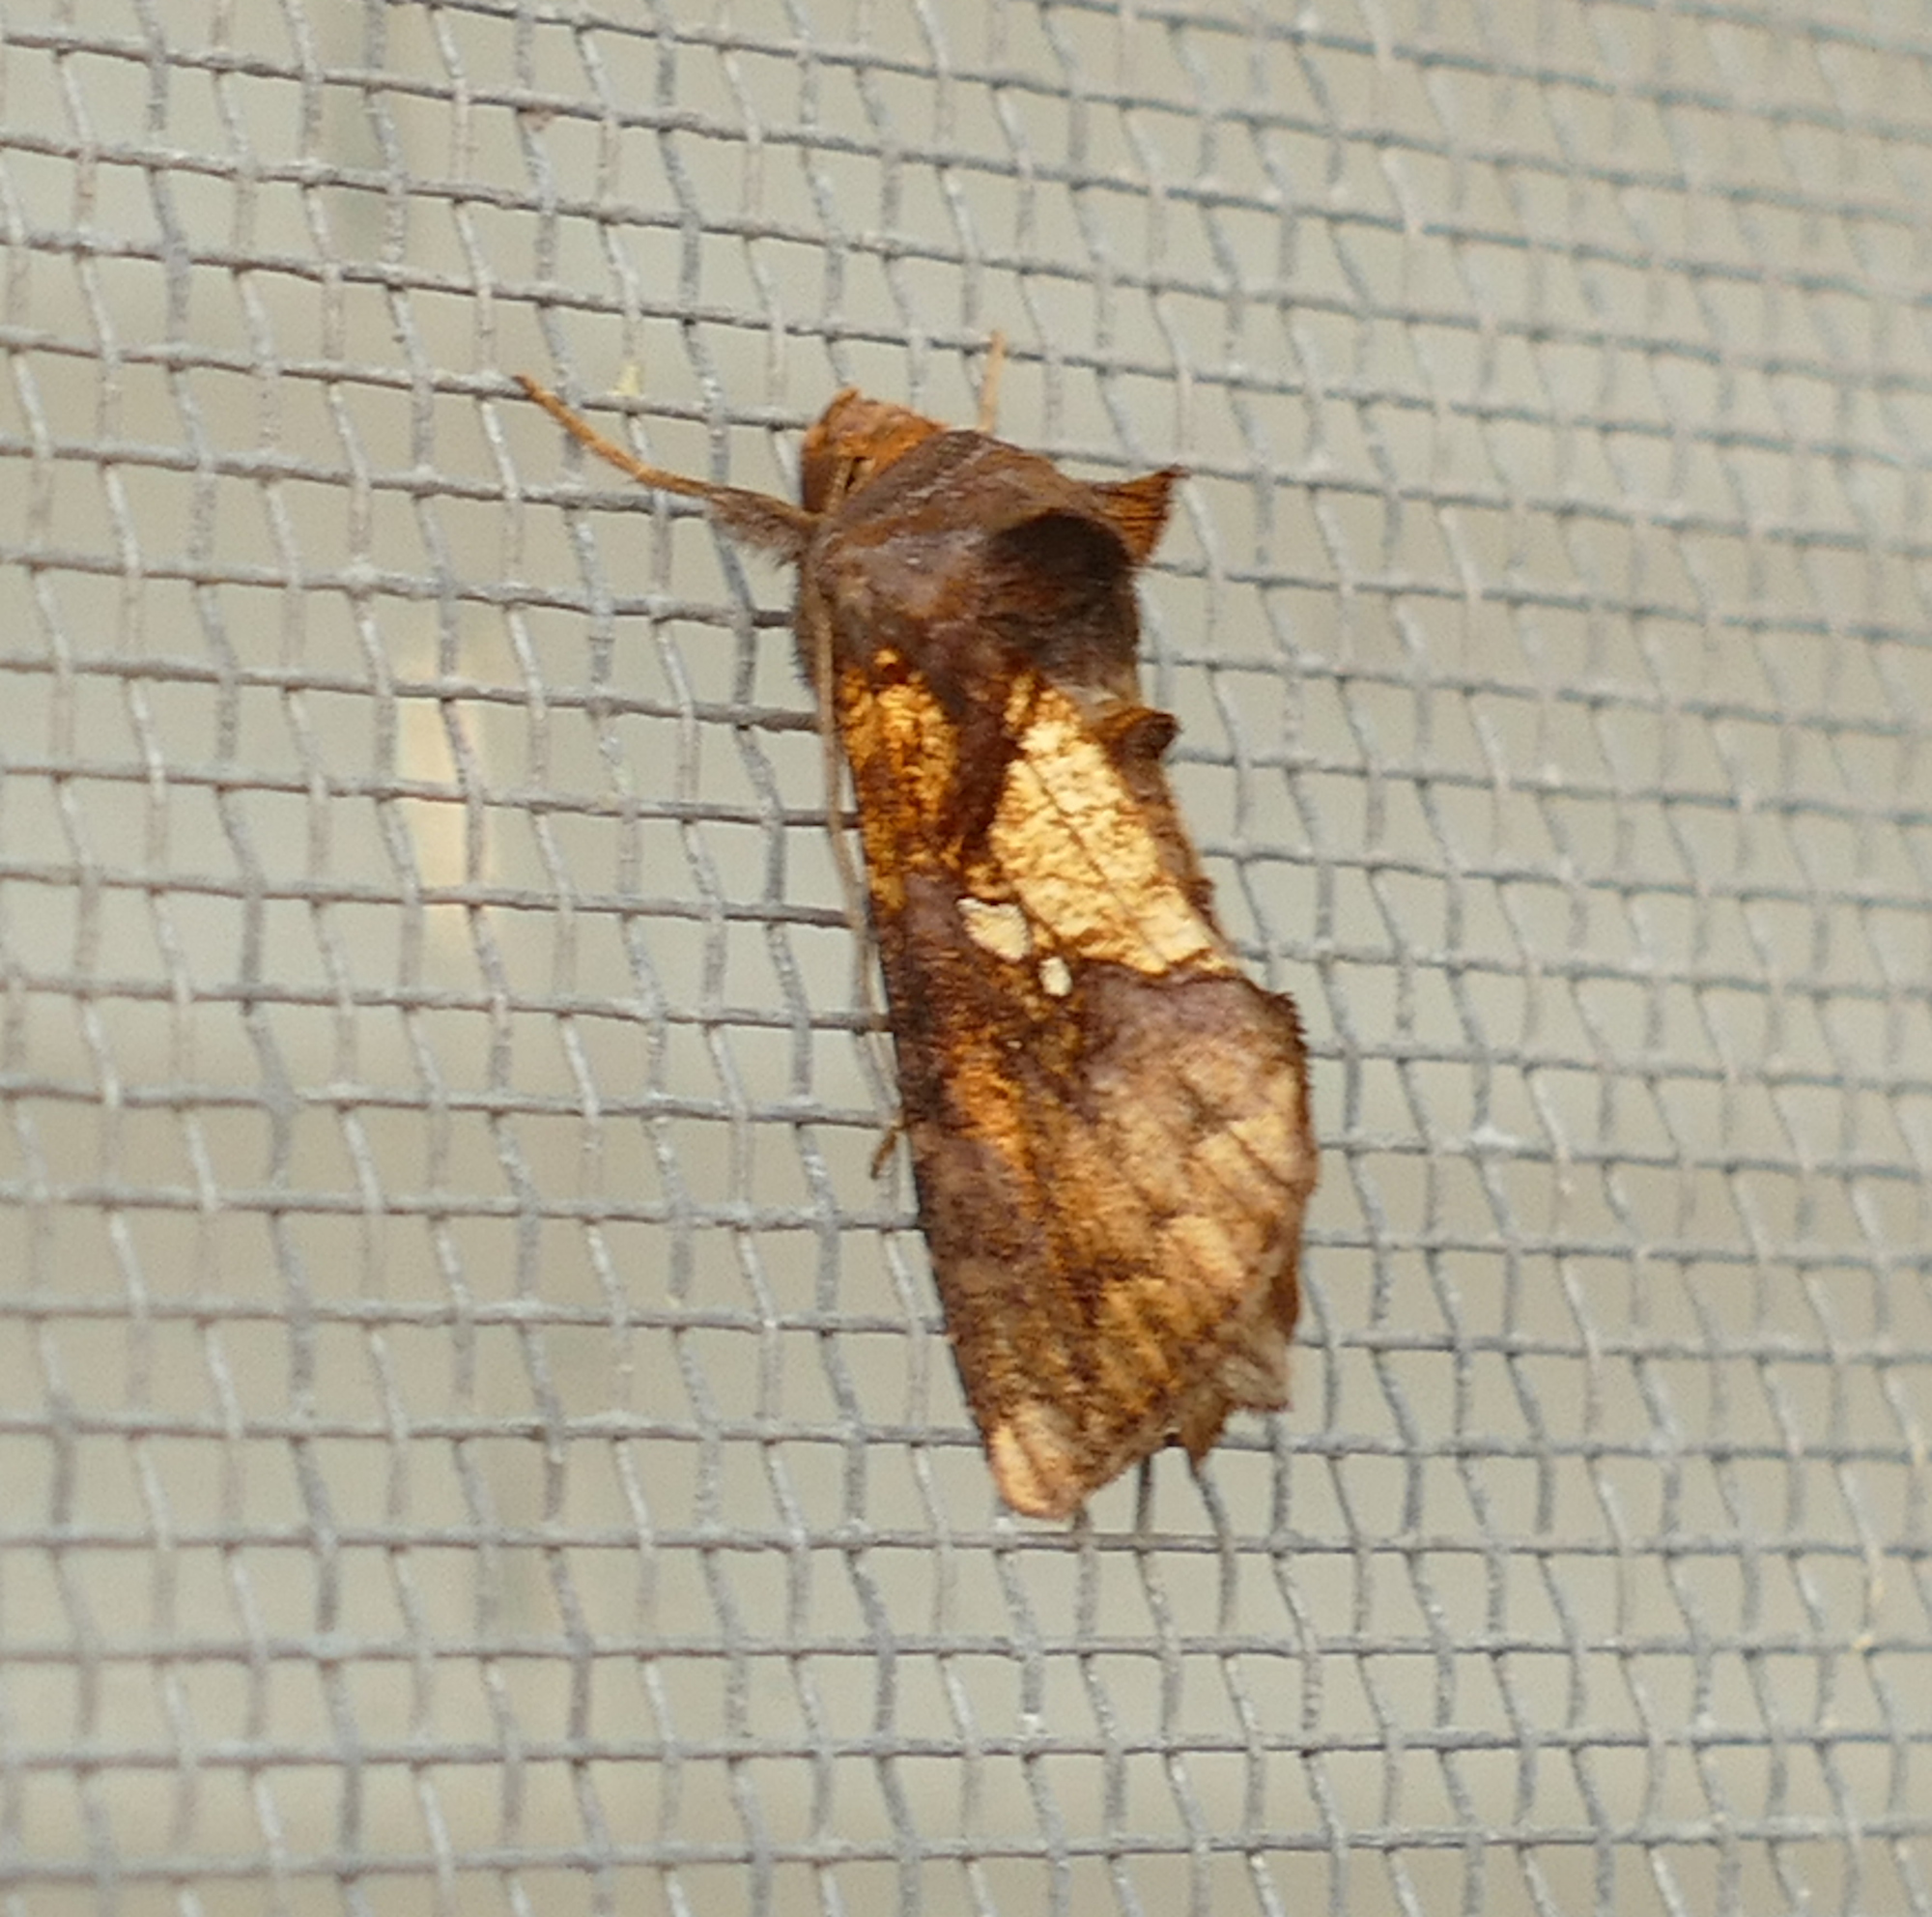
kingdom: Animalia
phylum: Arthropoda
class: Insecta
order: Lepidoptera
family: Noctuidae
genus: Argyrogramma
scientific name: Argyrogramma verruca
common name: Golden looper moth
